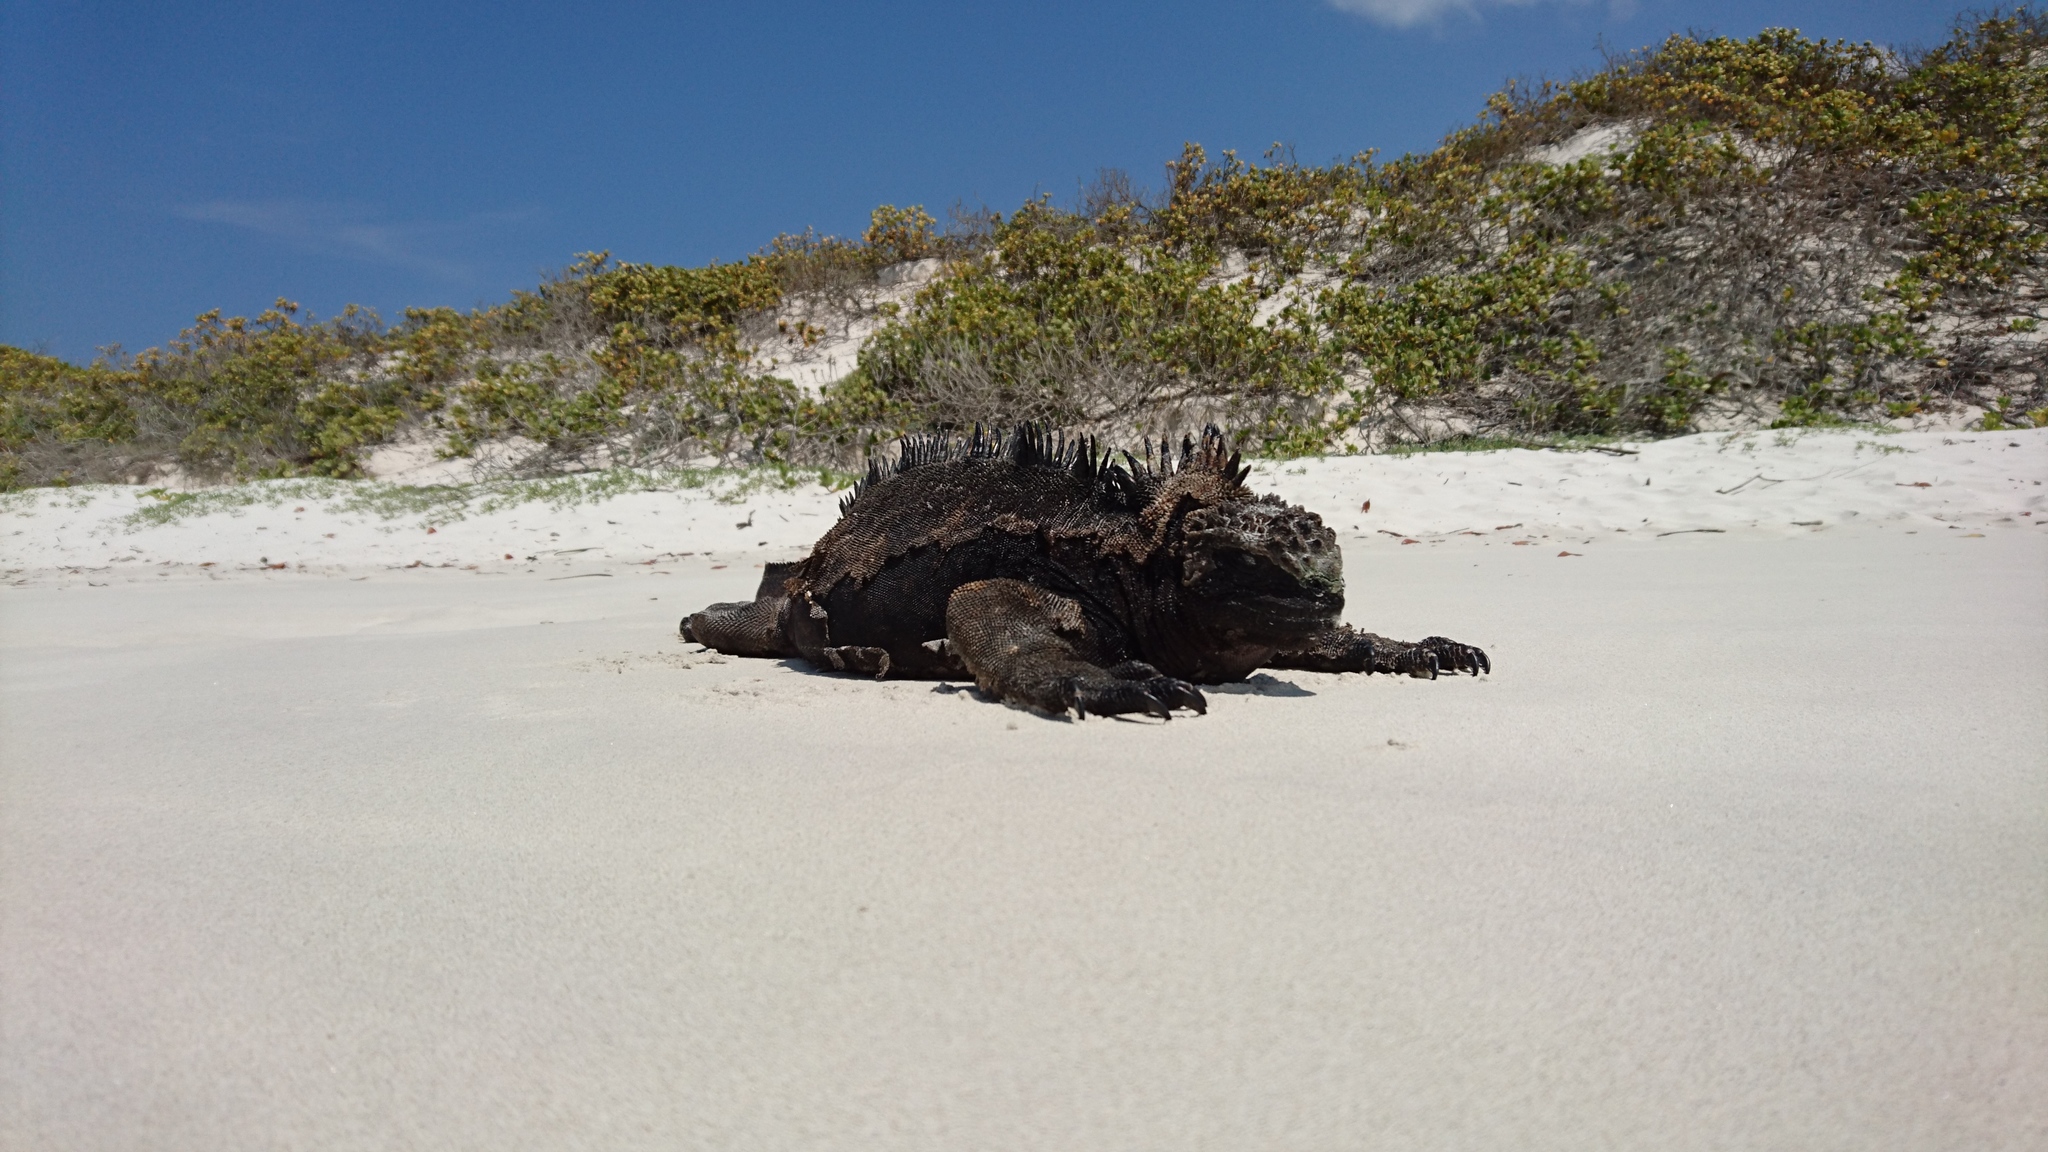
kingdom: Animalia
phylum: Chordata
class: Squamata
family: Iguanidae
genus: Amblyrhynchus
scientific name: Amblyrhynchus cristatus
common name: Marine iguana
